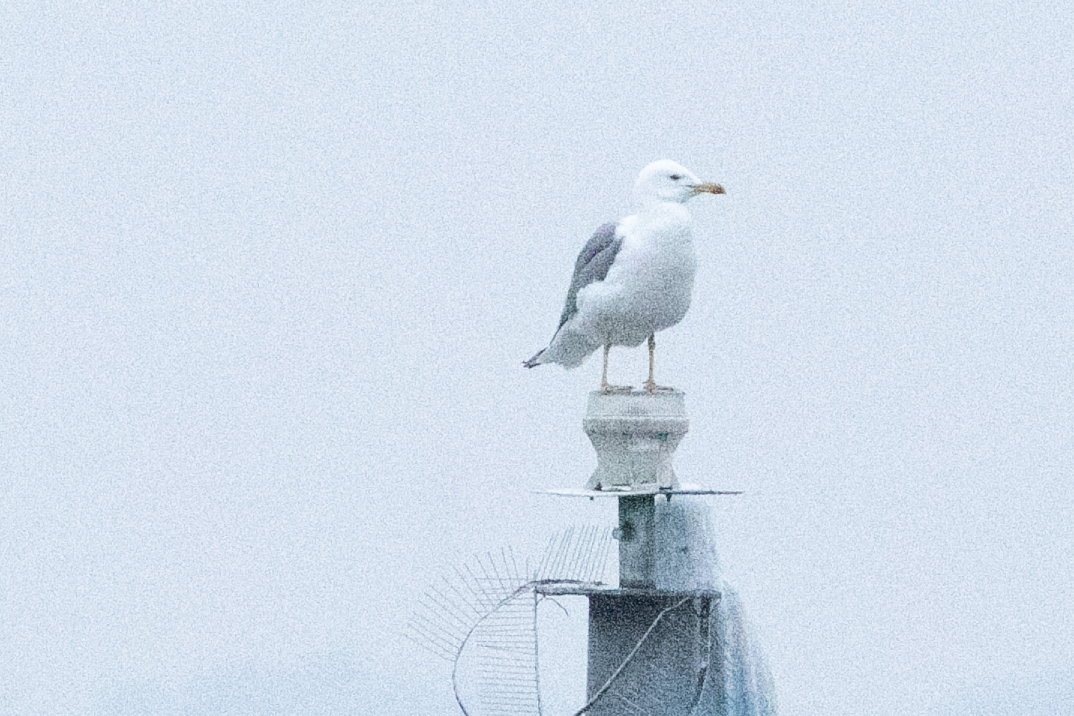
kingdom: Animalia
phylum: Chordata
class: Aves
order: Charadriiformes
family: Laridae
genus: Larus
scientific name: Larus michahellis
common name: Yellow-legged gull
